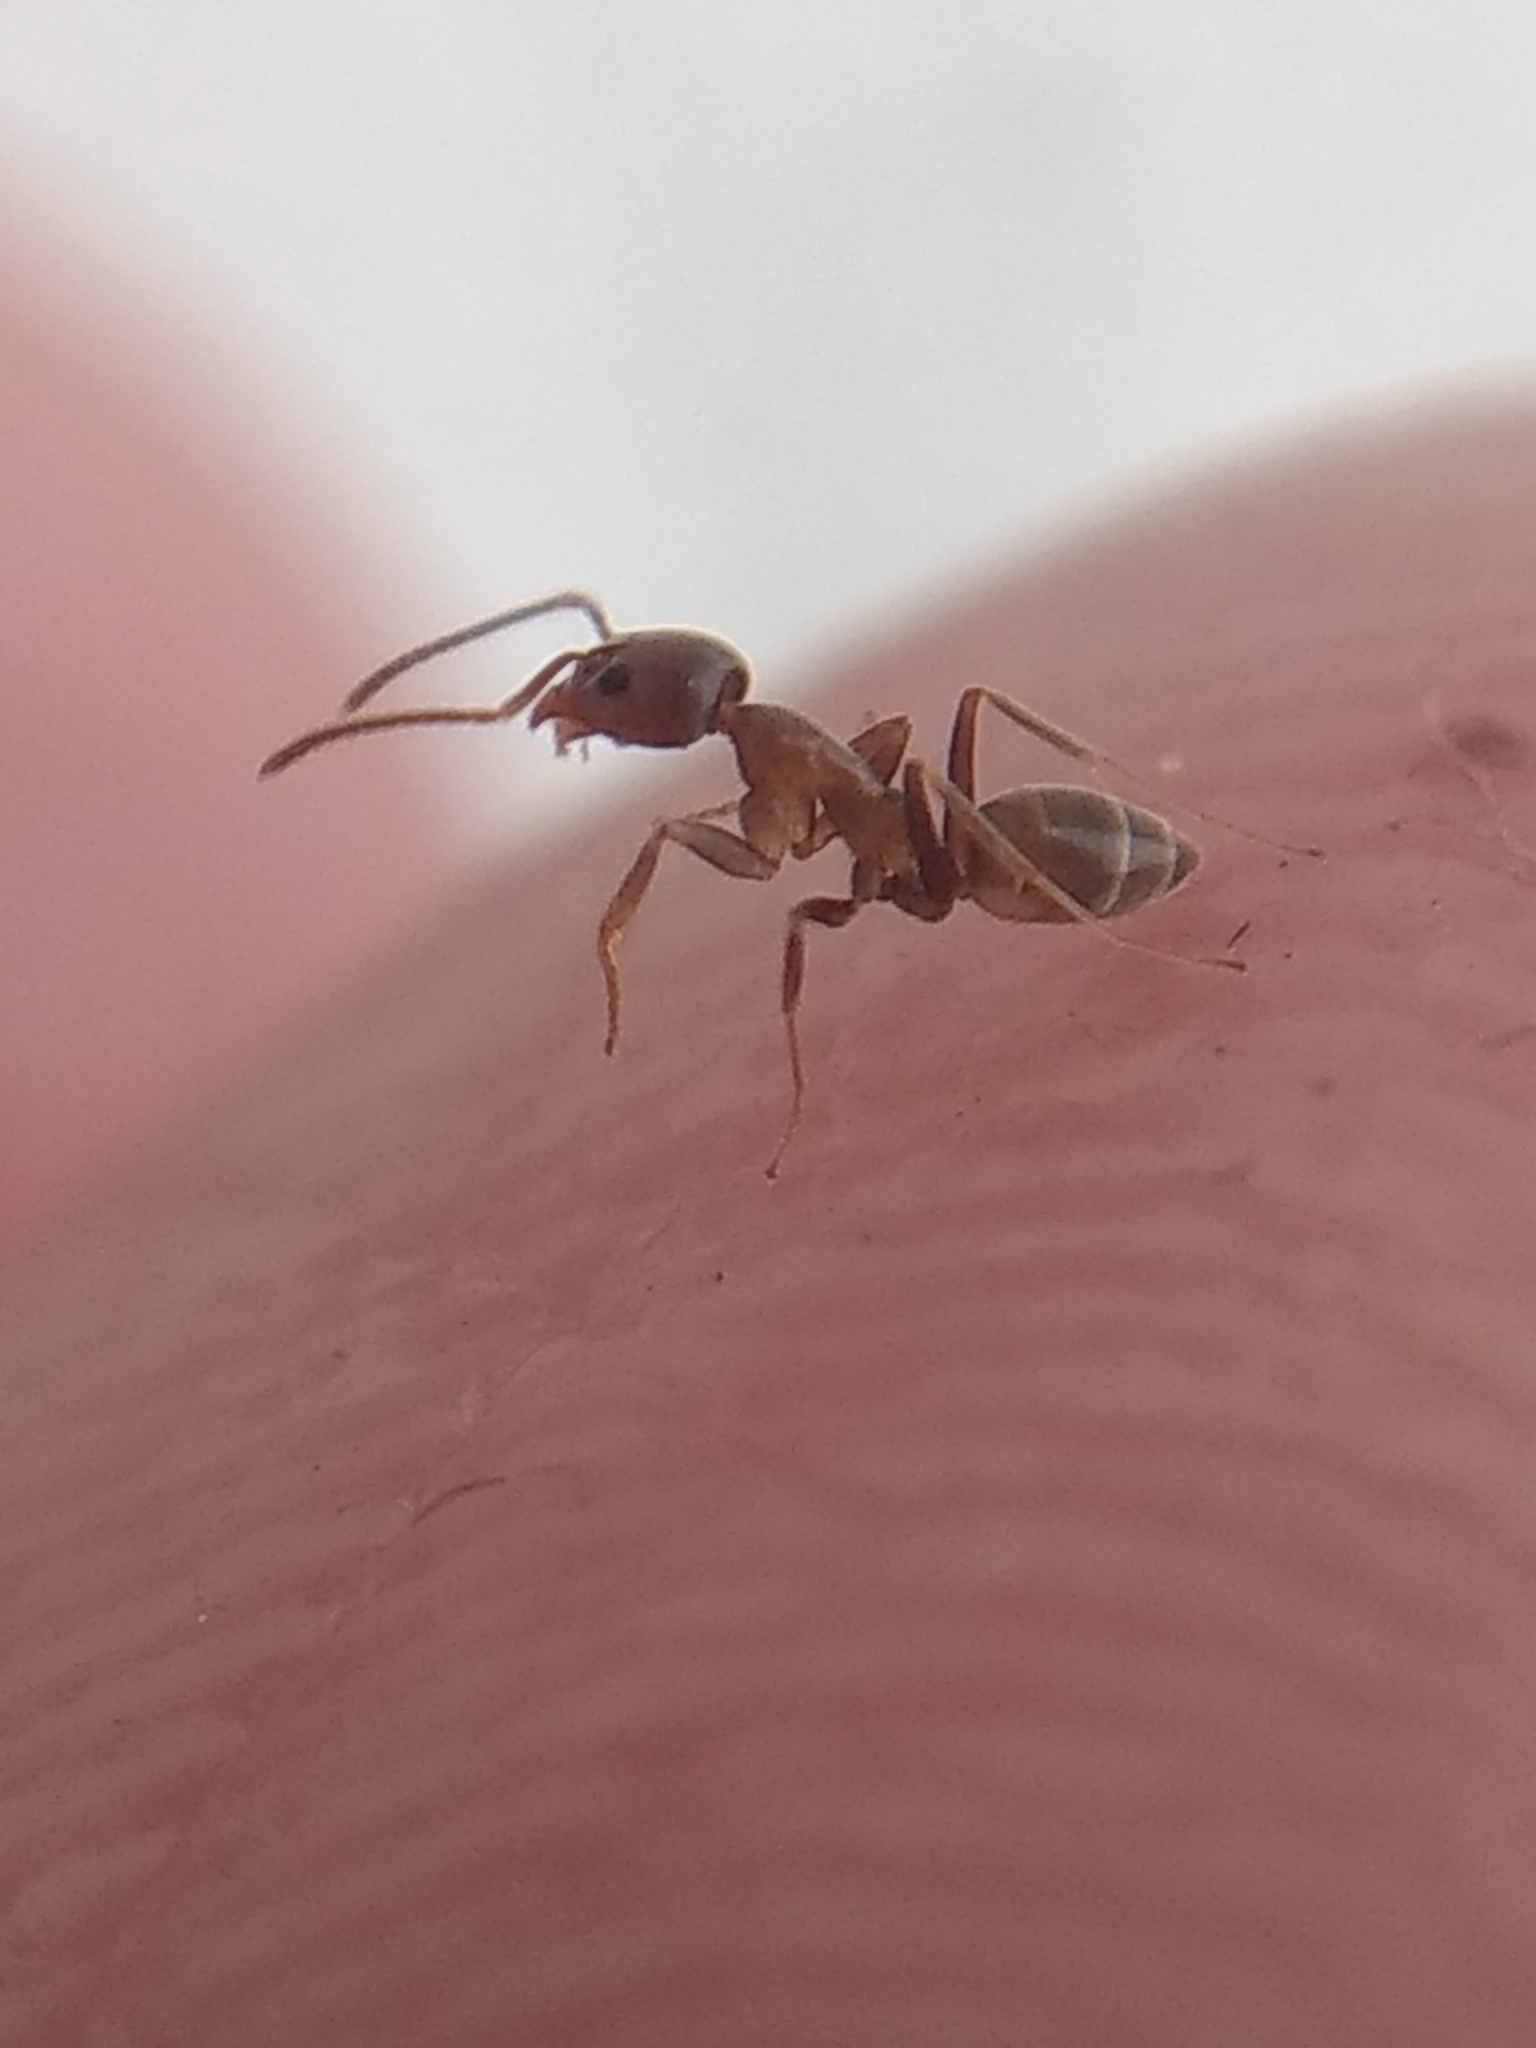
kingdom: Animalia
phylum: Arthropoda
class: Insecta
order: Hymenoptera
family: Formicidae
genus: Linepithema
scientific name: Linepithema humile
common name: Argentine ant
